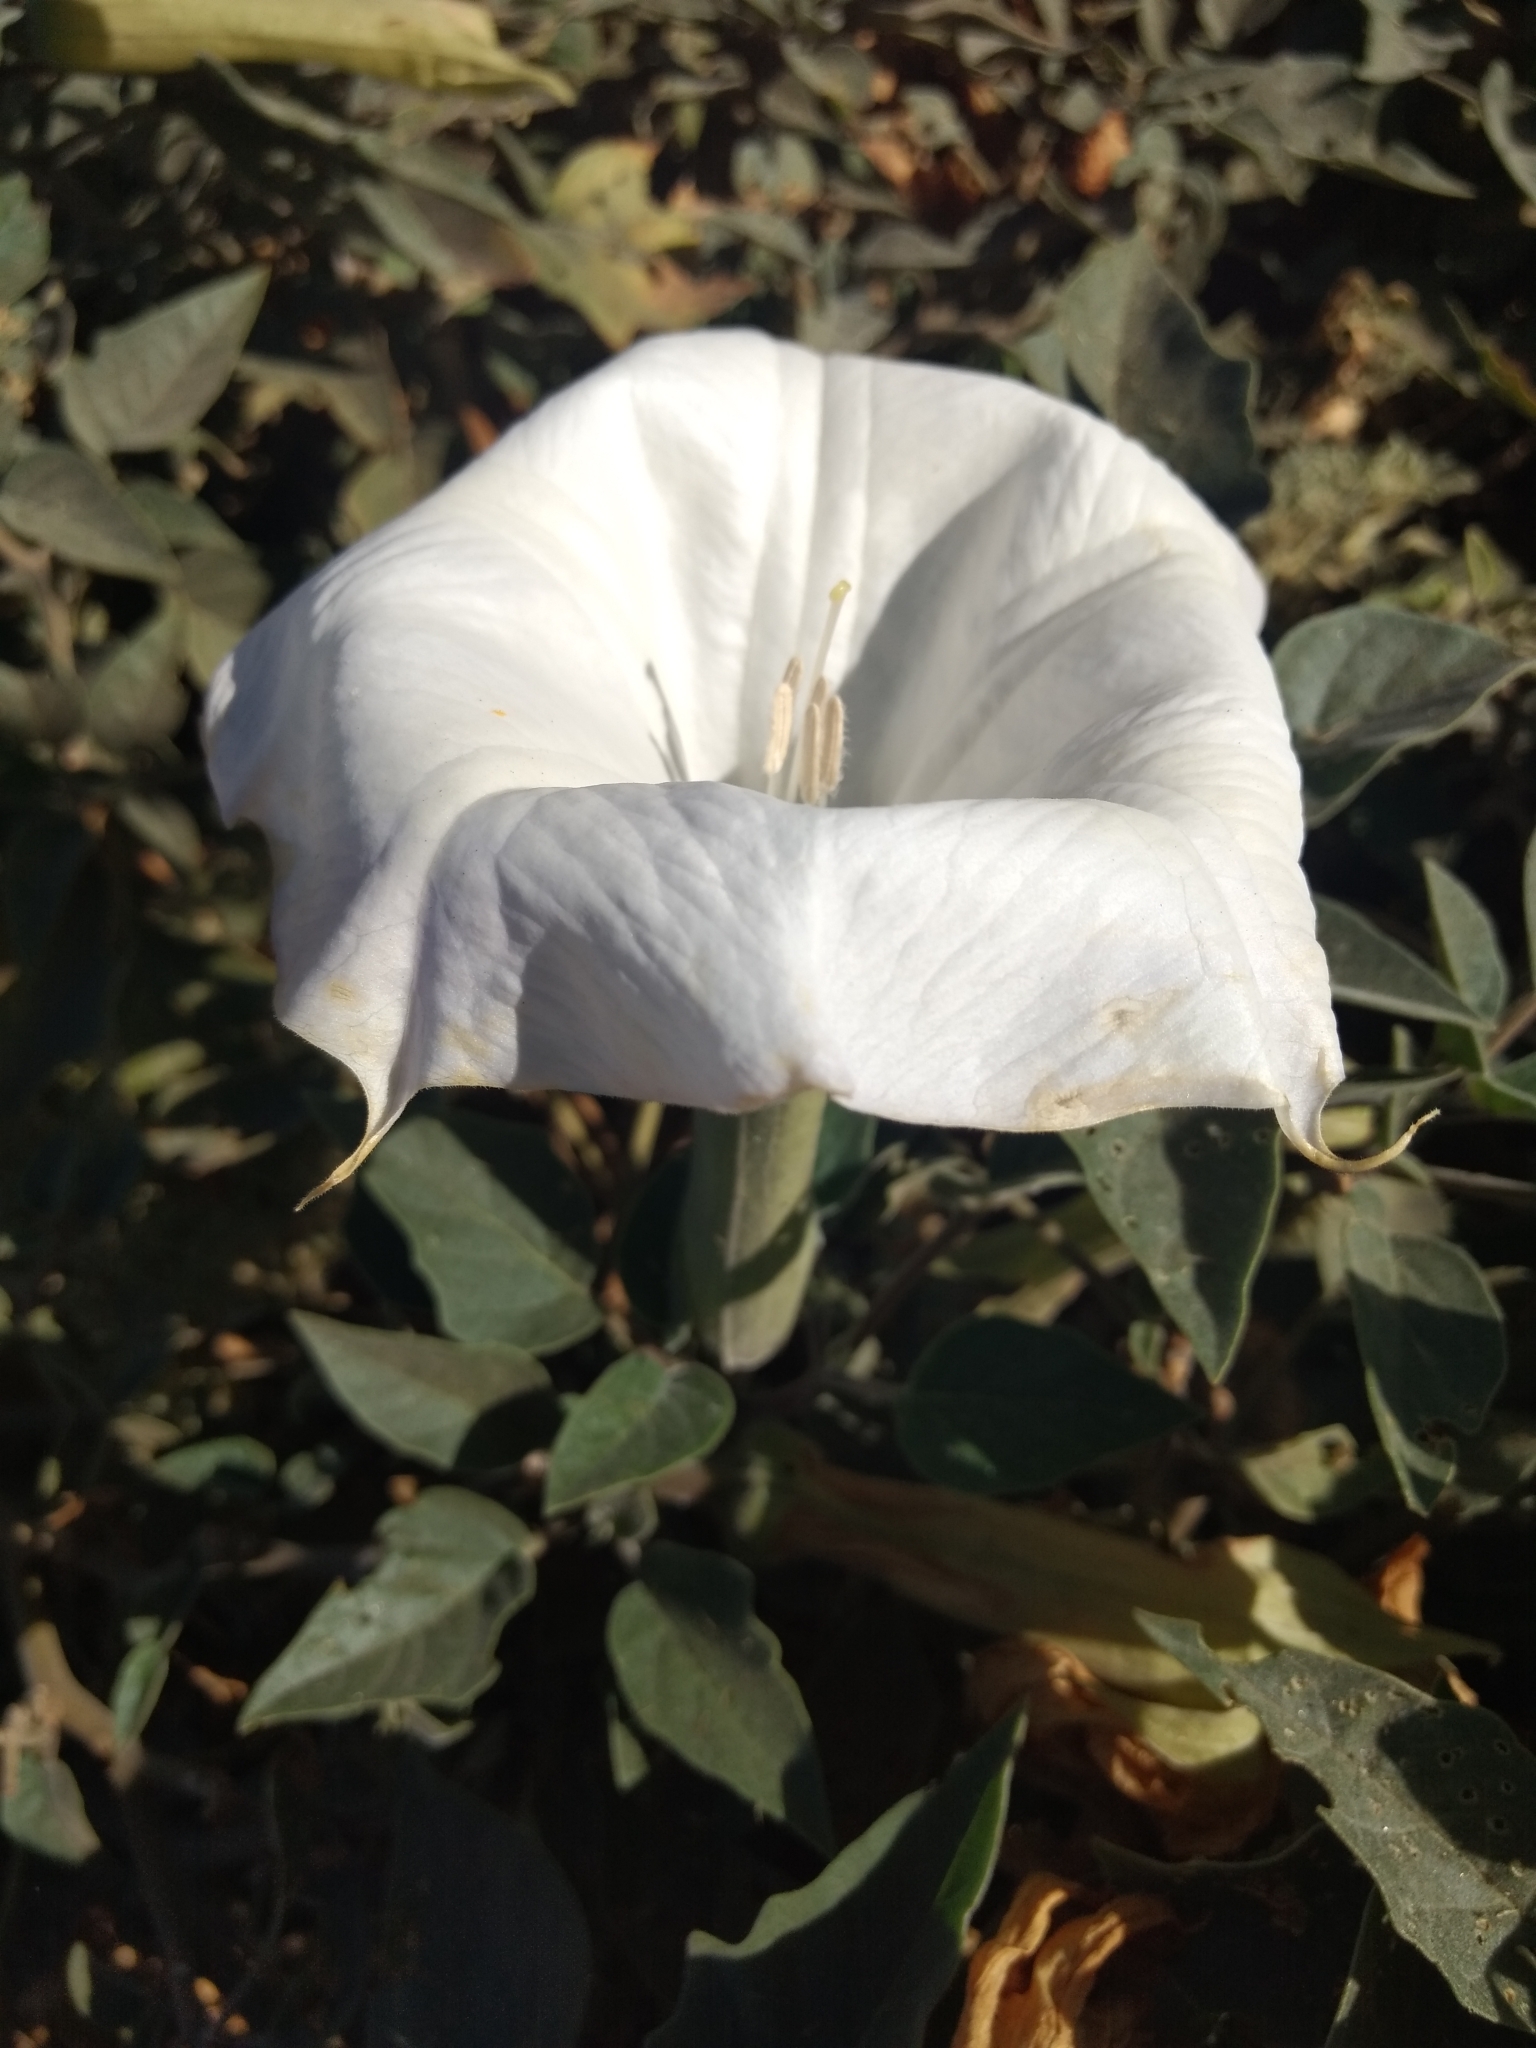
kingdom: Plantae
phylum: Tracheophyta
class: Magnoliopsida
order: Solanales
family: Solanaceae
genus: Datura
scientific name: Datura wrightii
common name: Sacred thorn-apple
